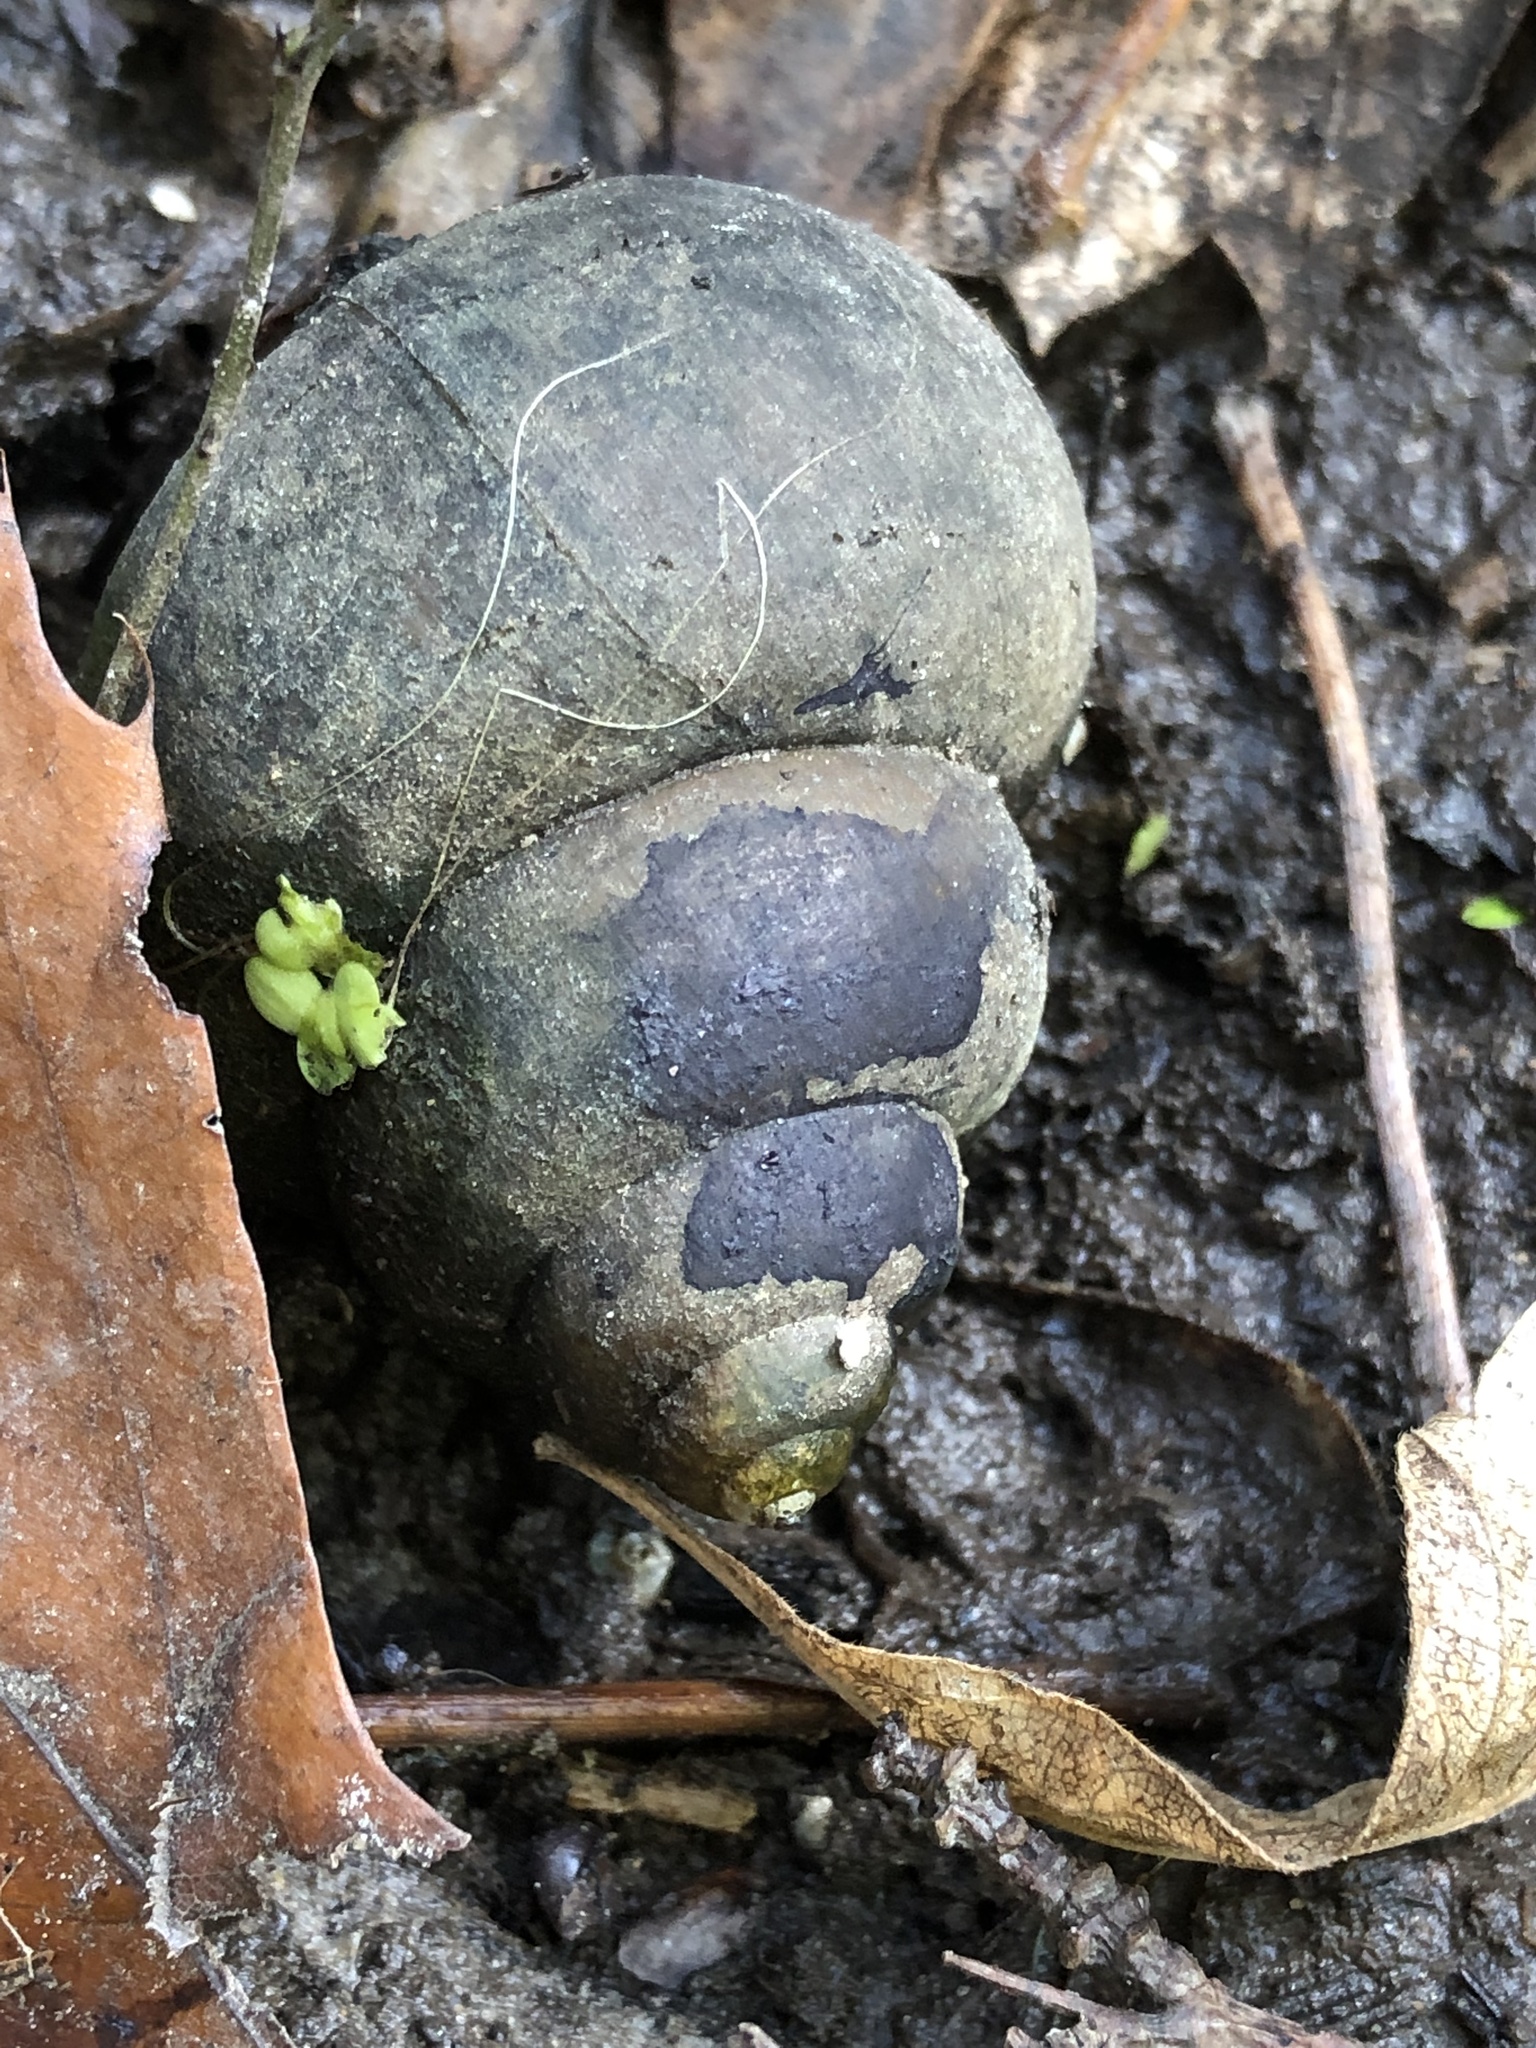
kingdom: Animalia
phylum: Mollusca
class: Gastropoda
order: Architaenioglossa
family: Viviparidae
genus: Cipangopaludina
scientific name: Cipangopaludina chinensis
